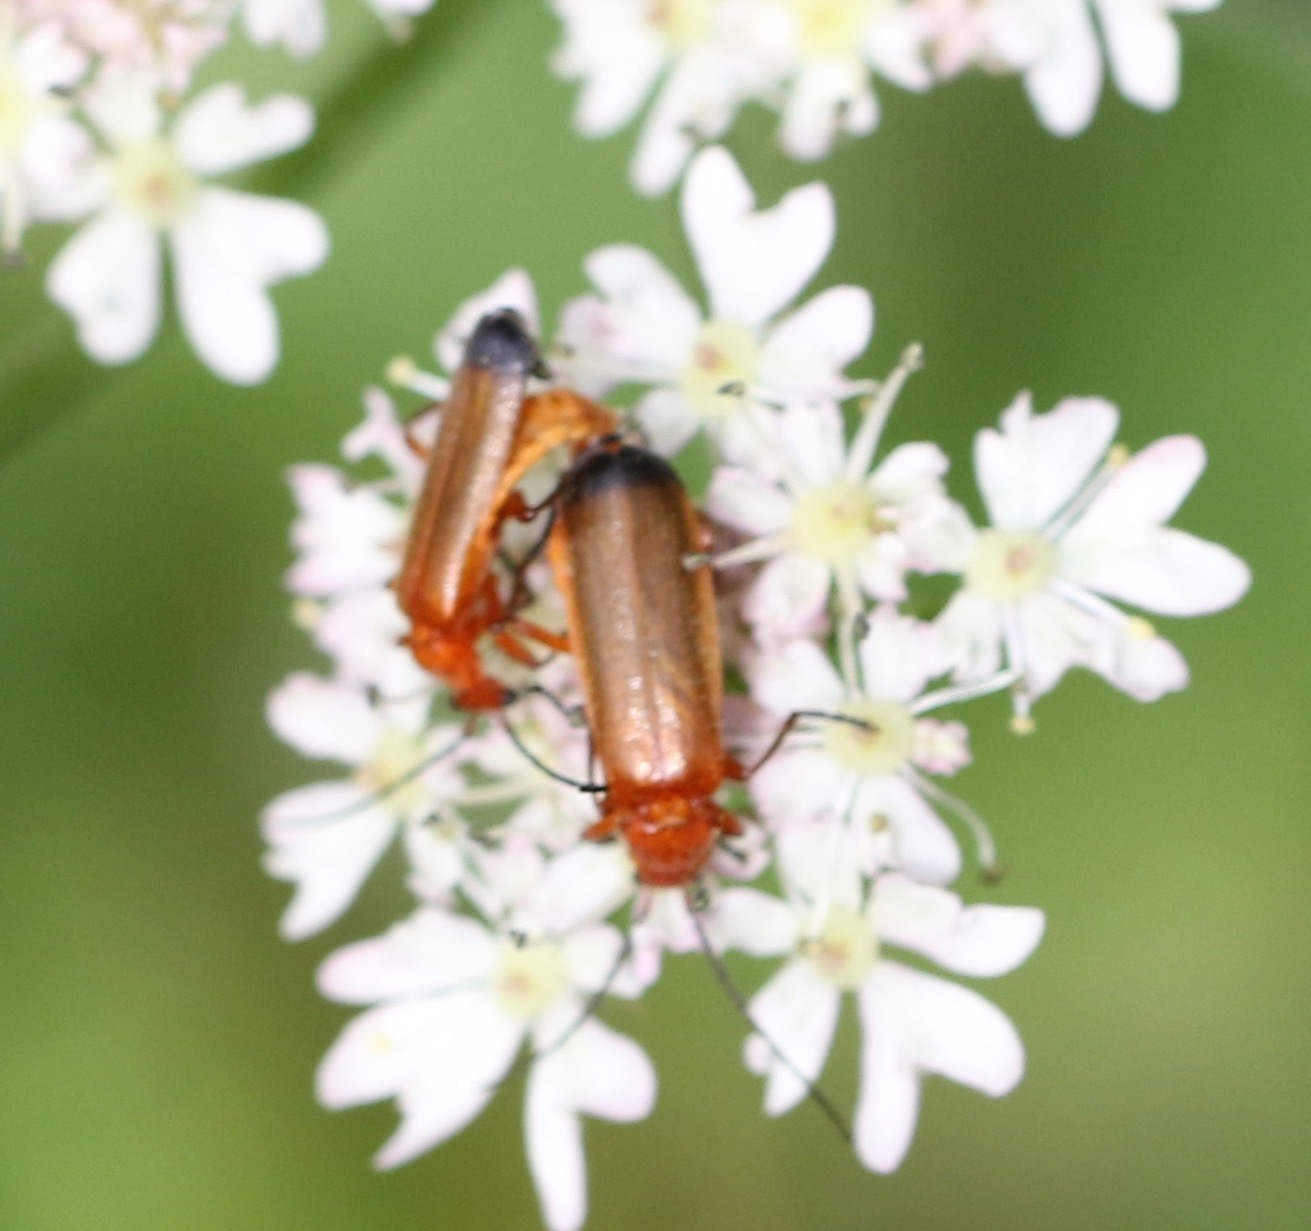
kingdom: Animalia
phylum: Arthropoda
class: Insecta
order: Coleoptera
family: Cantharidae
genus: Rhagonycha
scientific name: Rhagonycha fulva
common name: Common red soldier beetle
